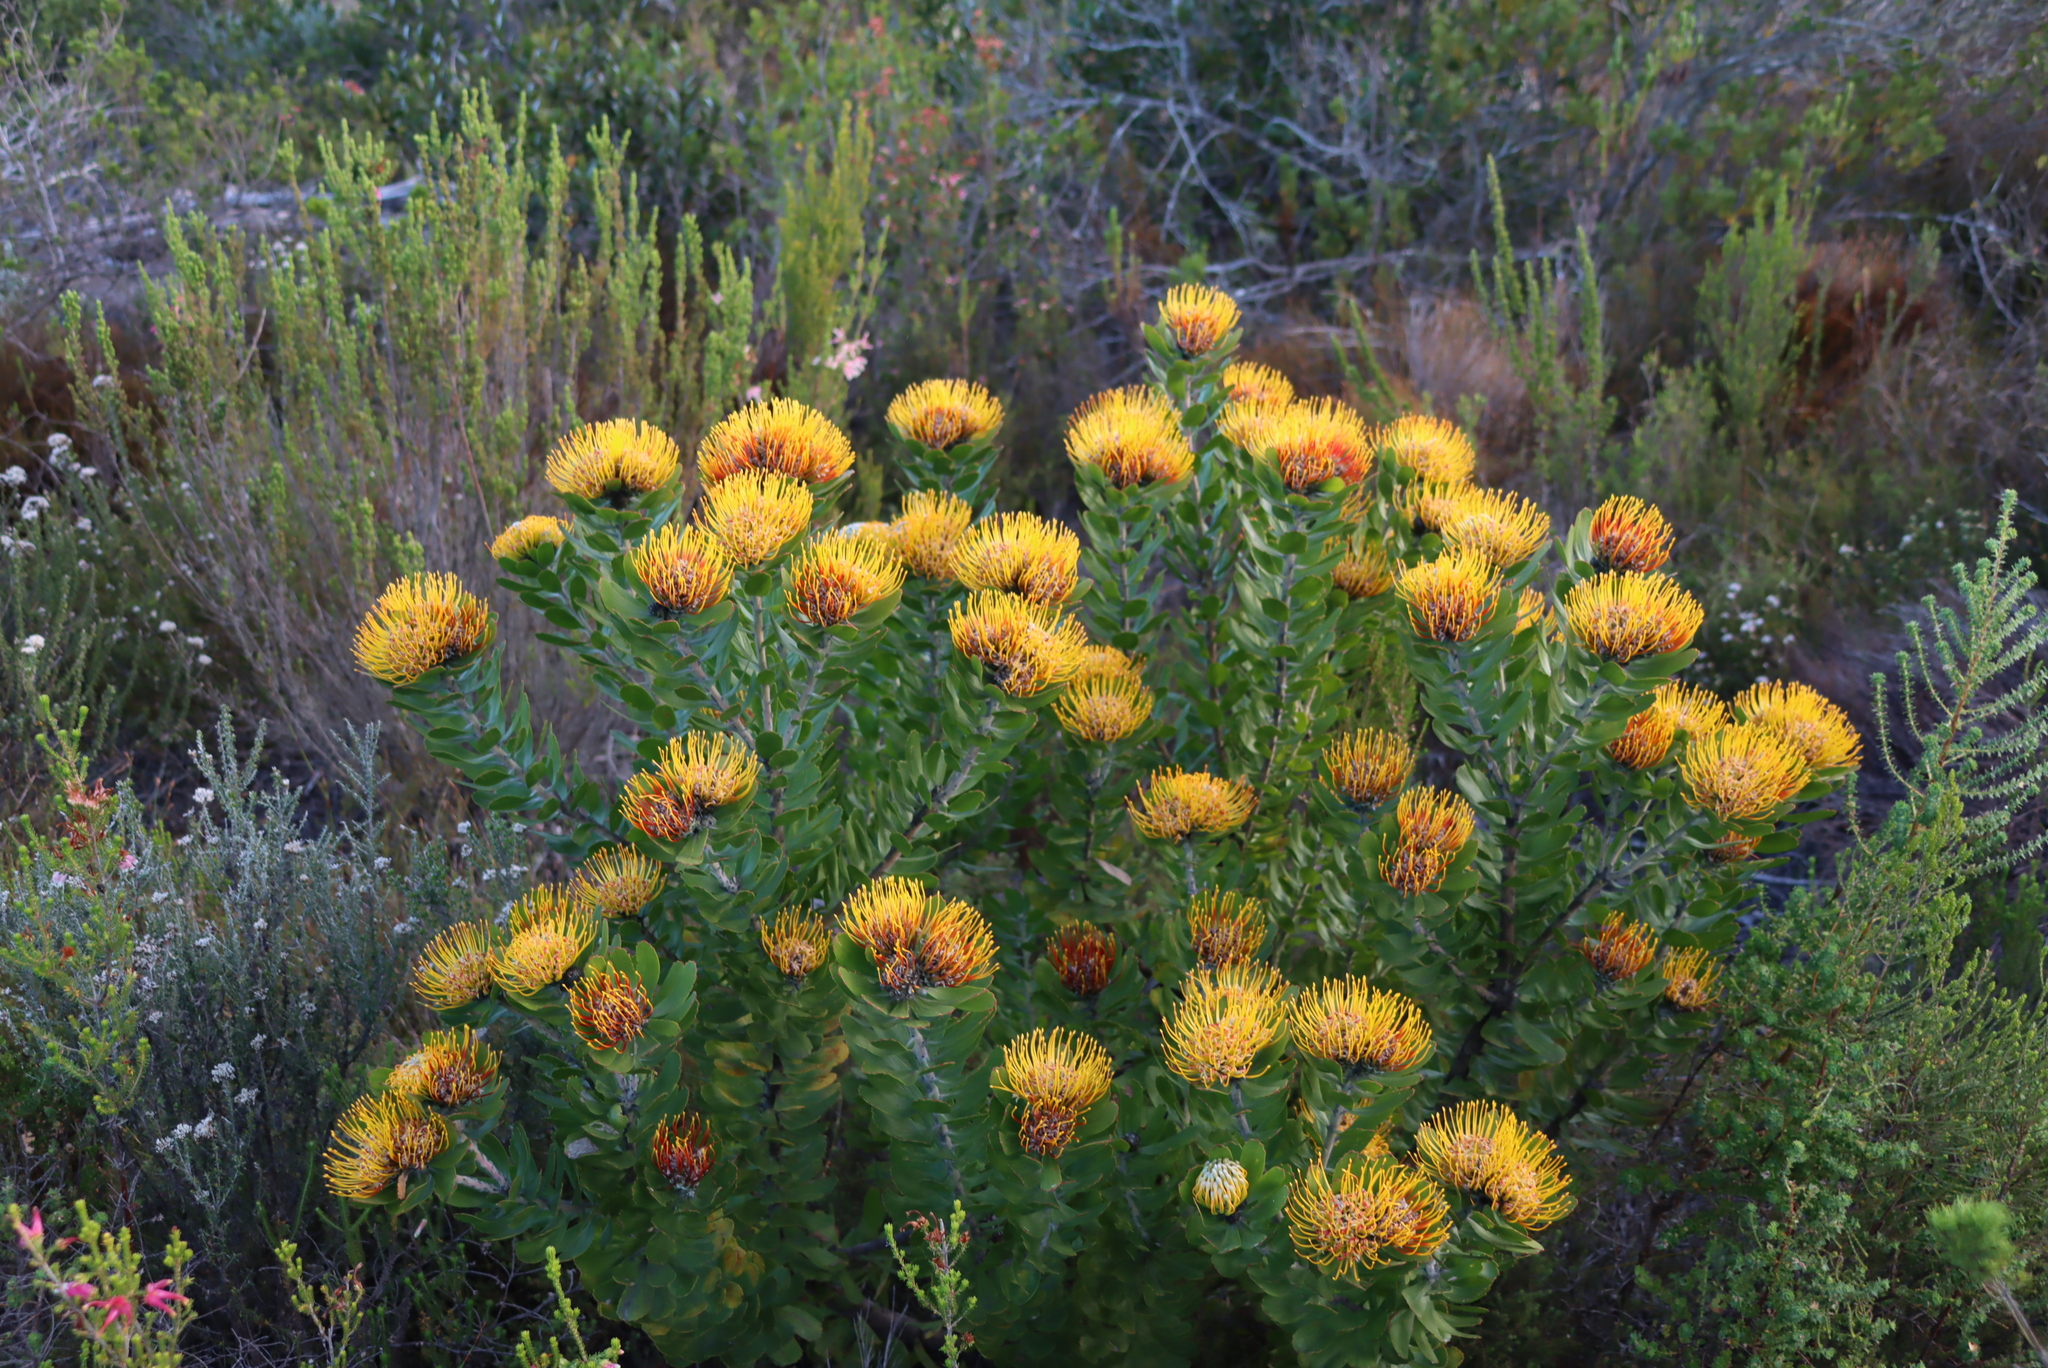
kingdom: Plantae
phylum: Tracheophyta
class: Magnoliopsida
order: Proteales
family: Proteaceae
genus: Leucospermum
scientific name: Leucospermum praecox
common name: Mossel bay pincushion
